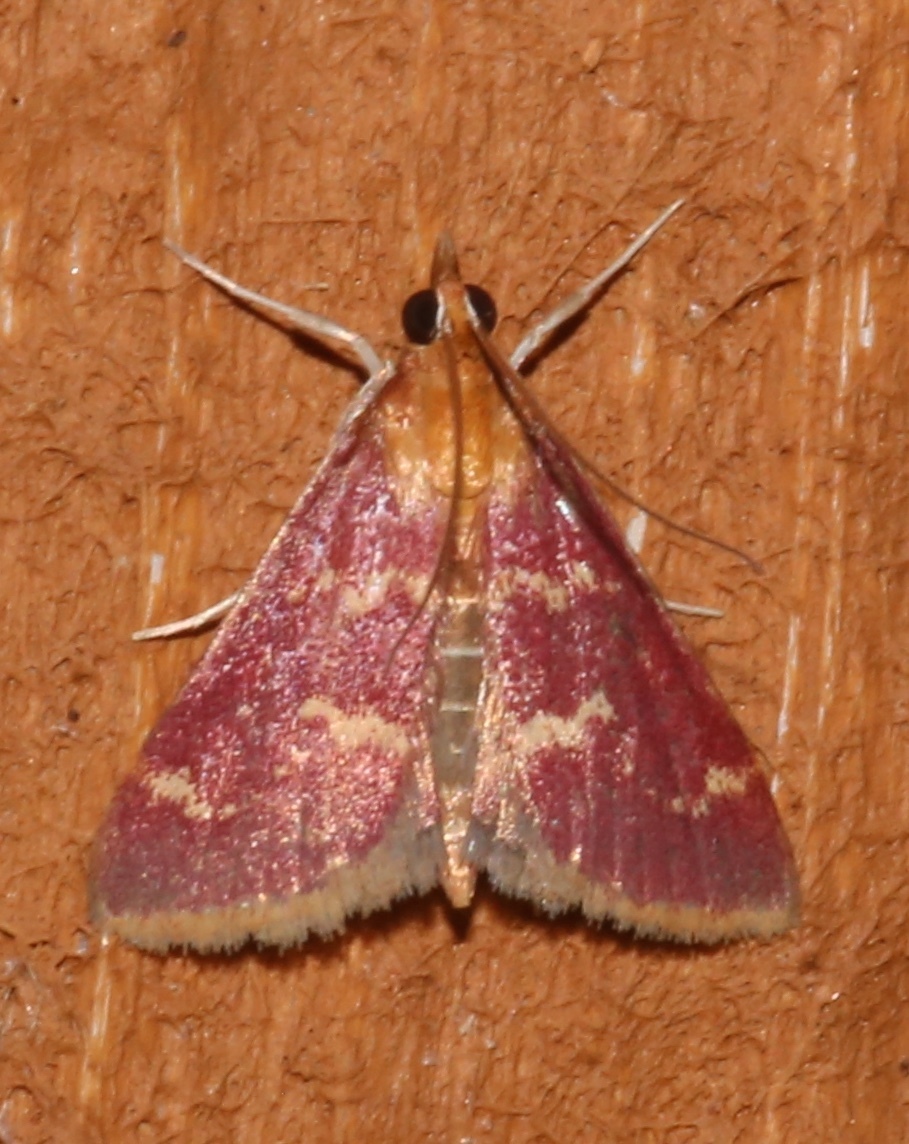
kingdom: Animalia
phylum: Arthropoda
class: Insecta
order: Lepidoptera
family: Crambidae
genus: Pyrausta
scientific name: Pyrausta signatalis
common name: Raspberry pyrausta moth
